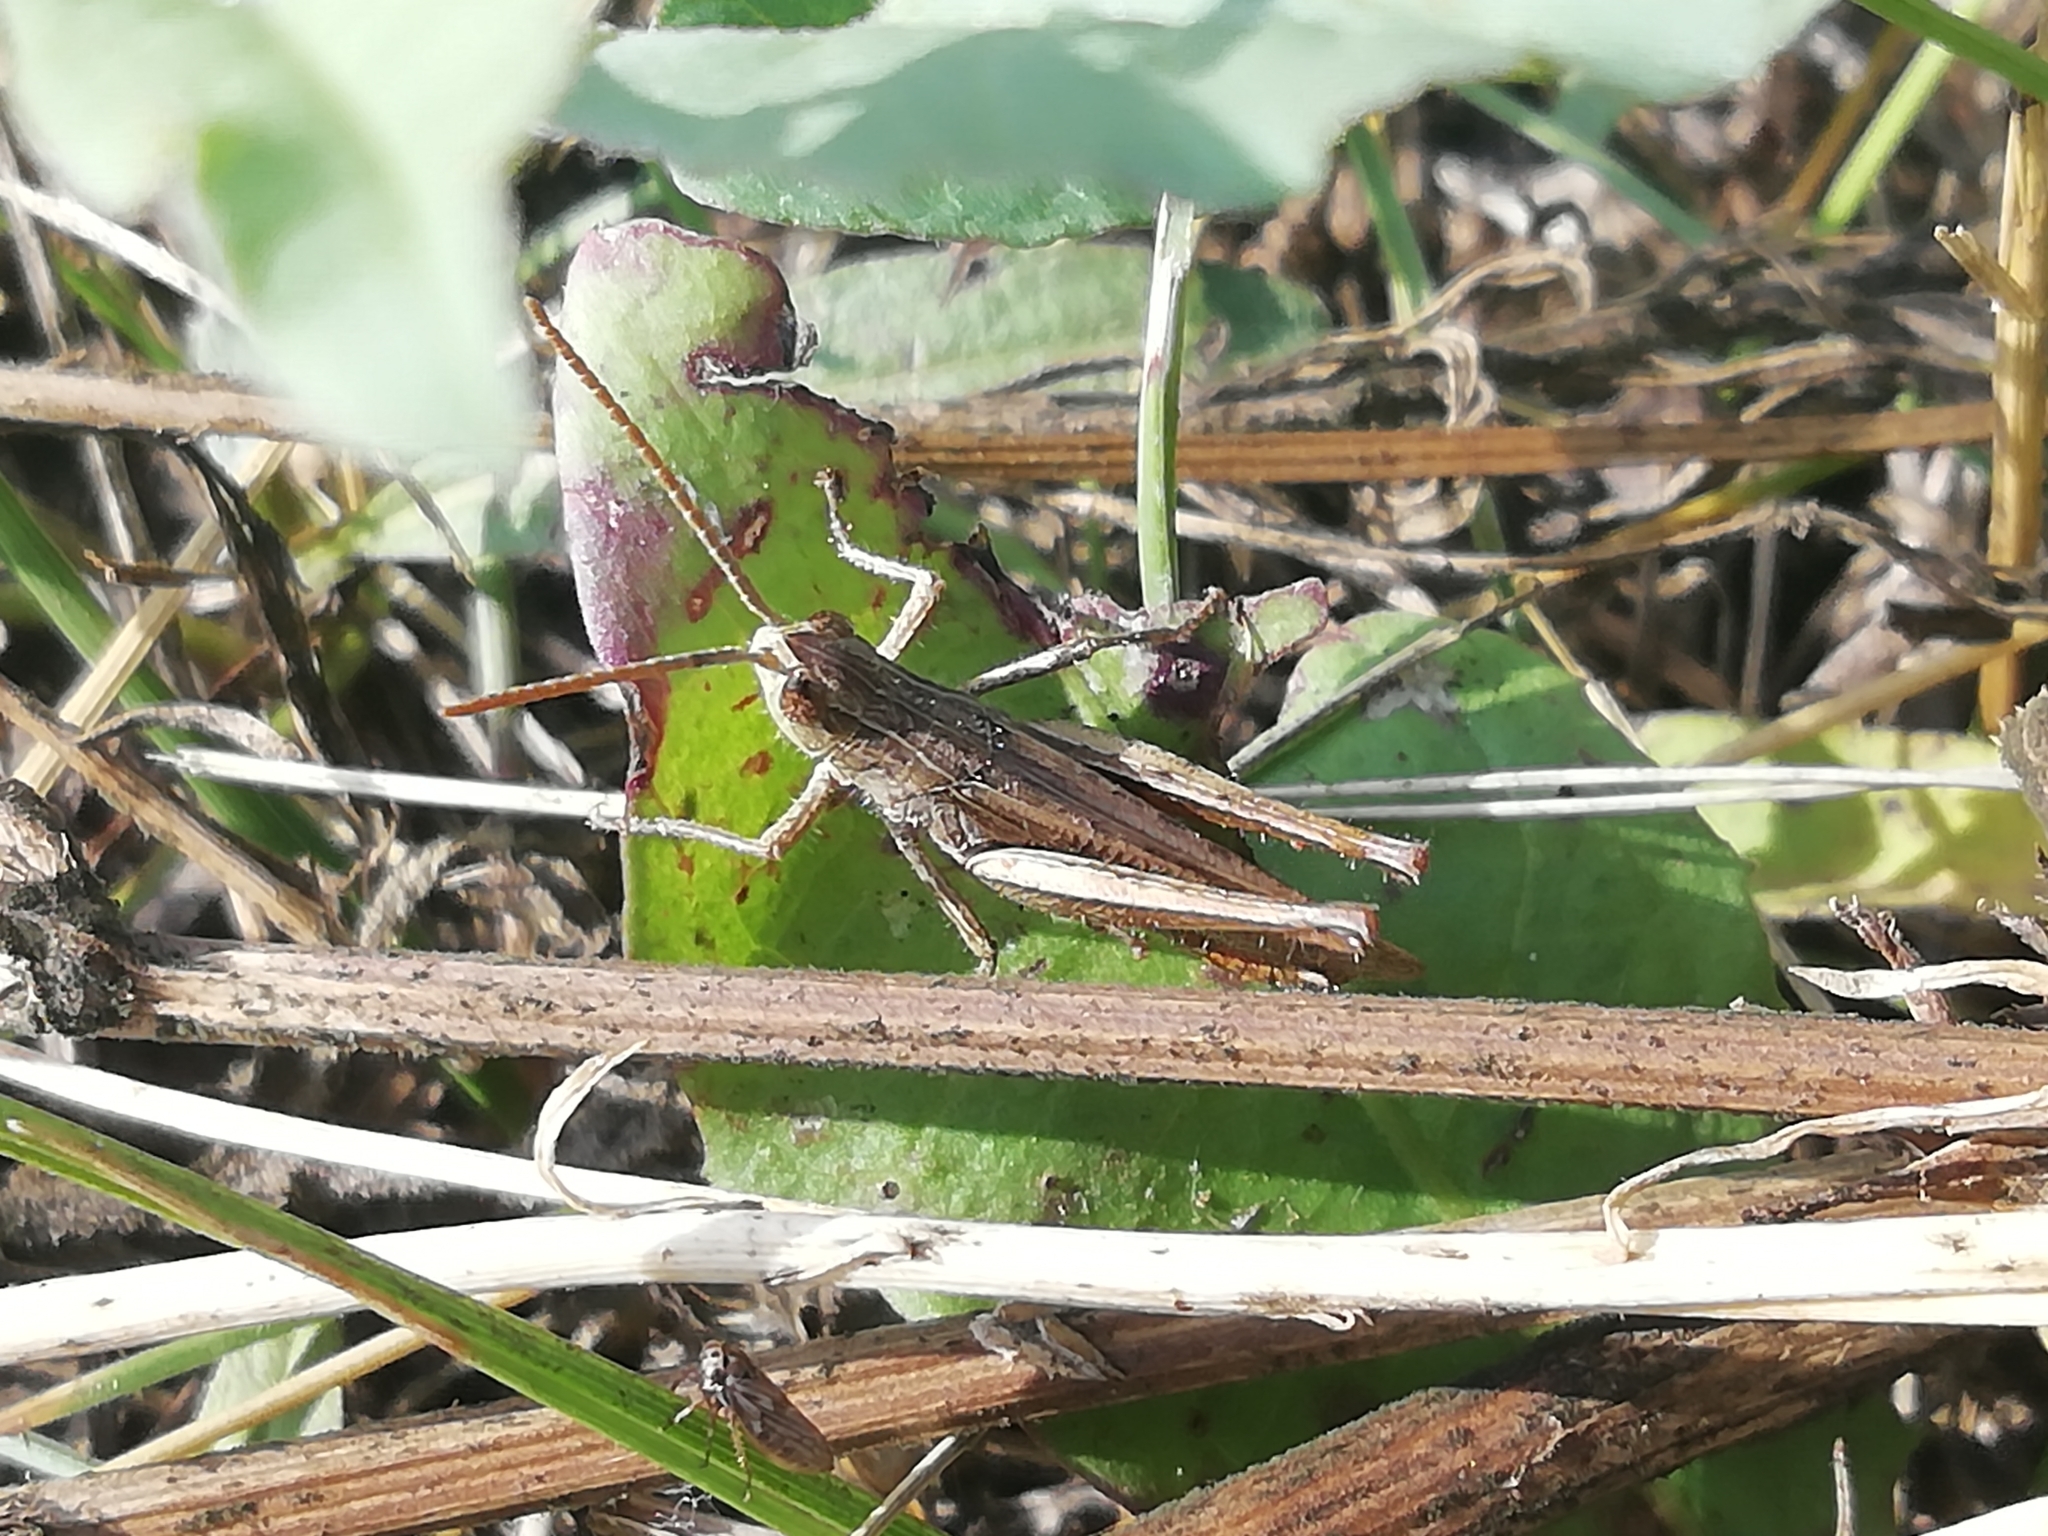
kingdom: Animalia
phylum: Arthropoda
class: Insecta
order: Orthoptera
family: Acrididae
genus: Chorthippus
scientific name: Chorthippus dorsatus
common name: Steppe grasshopper
